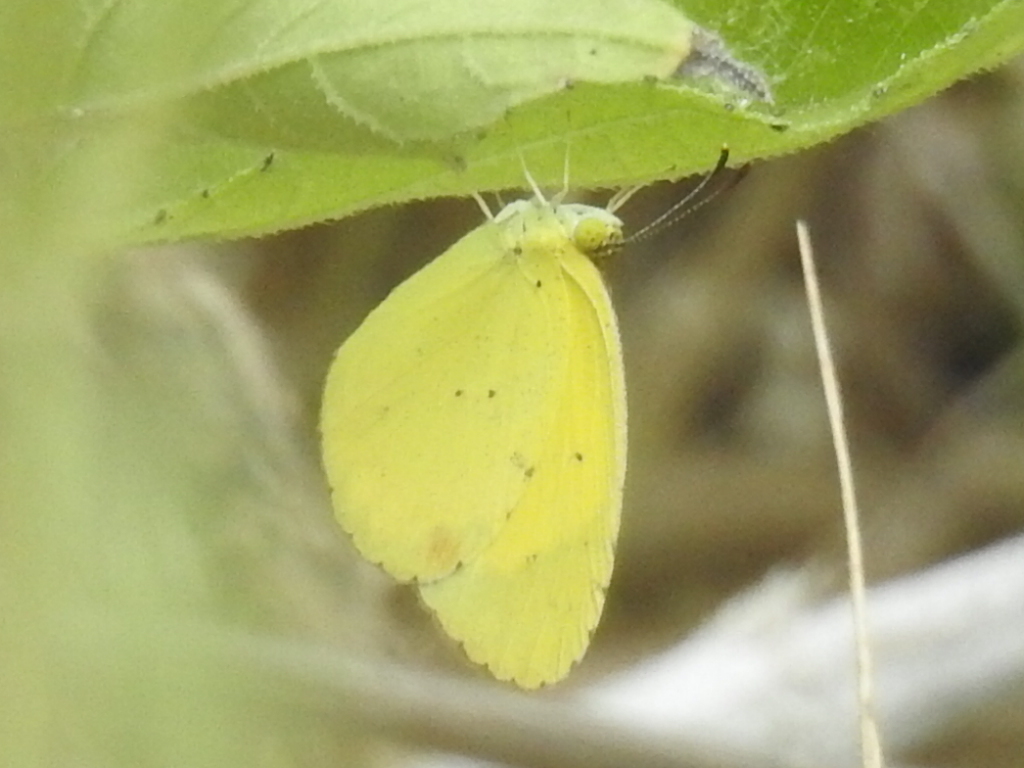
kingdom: Animalia
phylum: Arthropoda
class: Insecta
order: Lepidoptera
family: Pieridae
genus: Pyrisitia
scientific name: Pyrisitia lisa
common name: Little yellow
